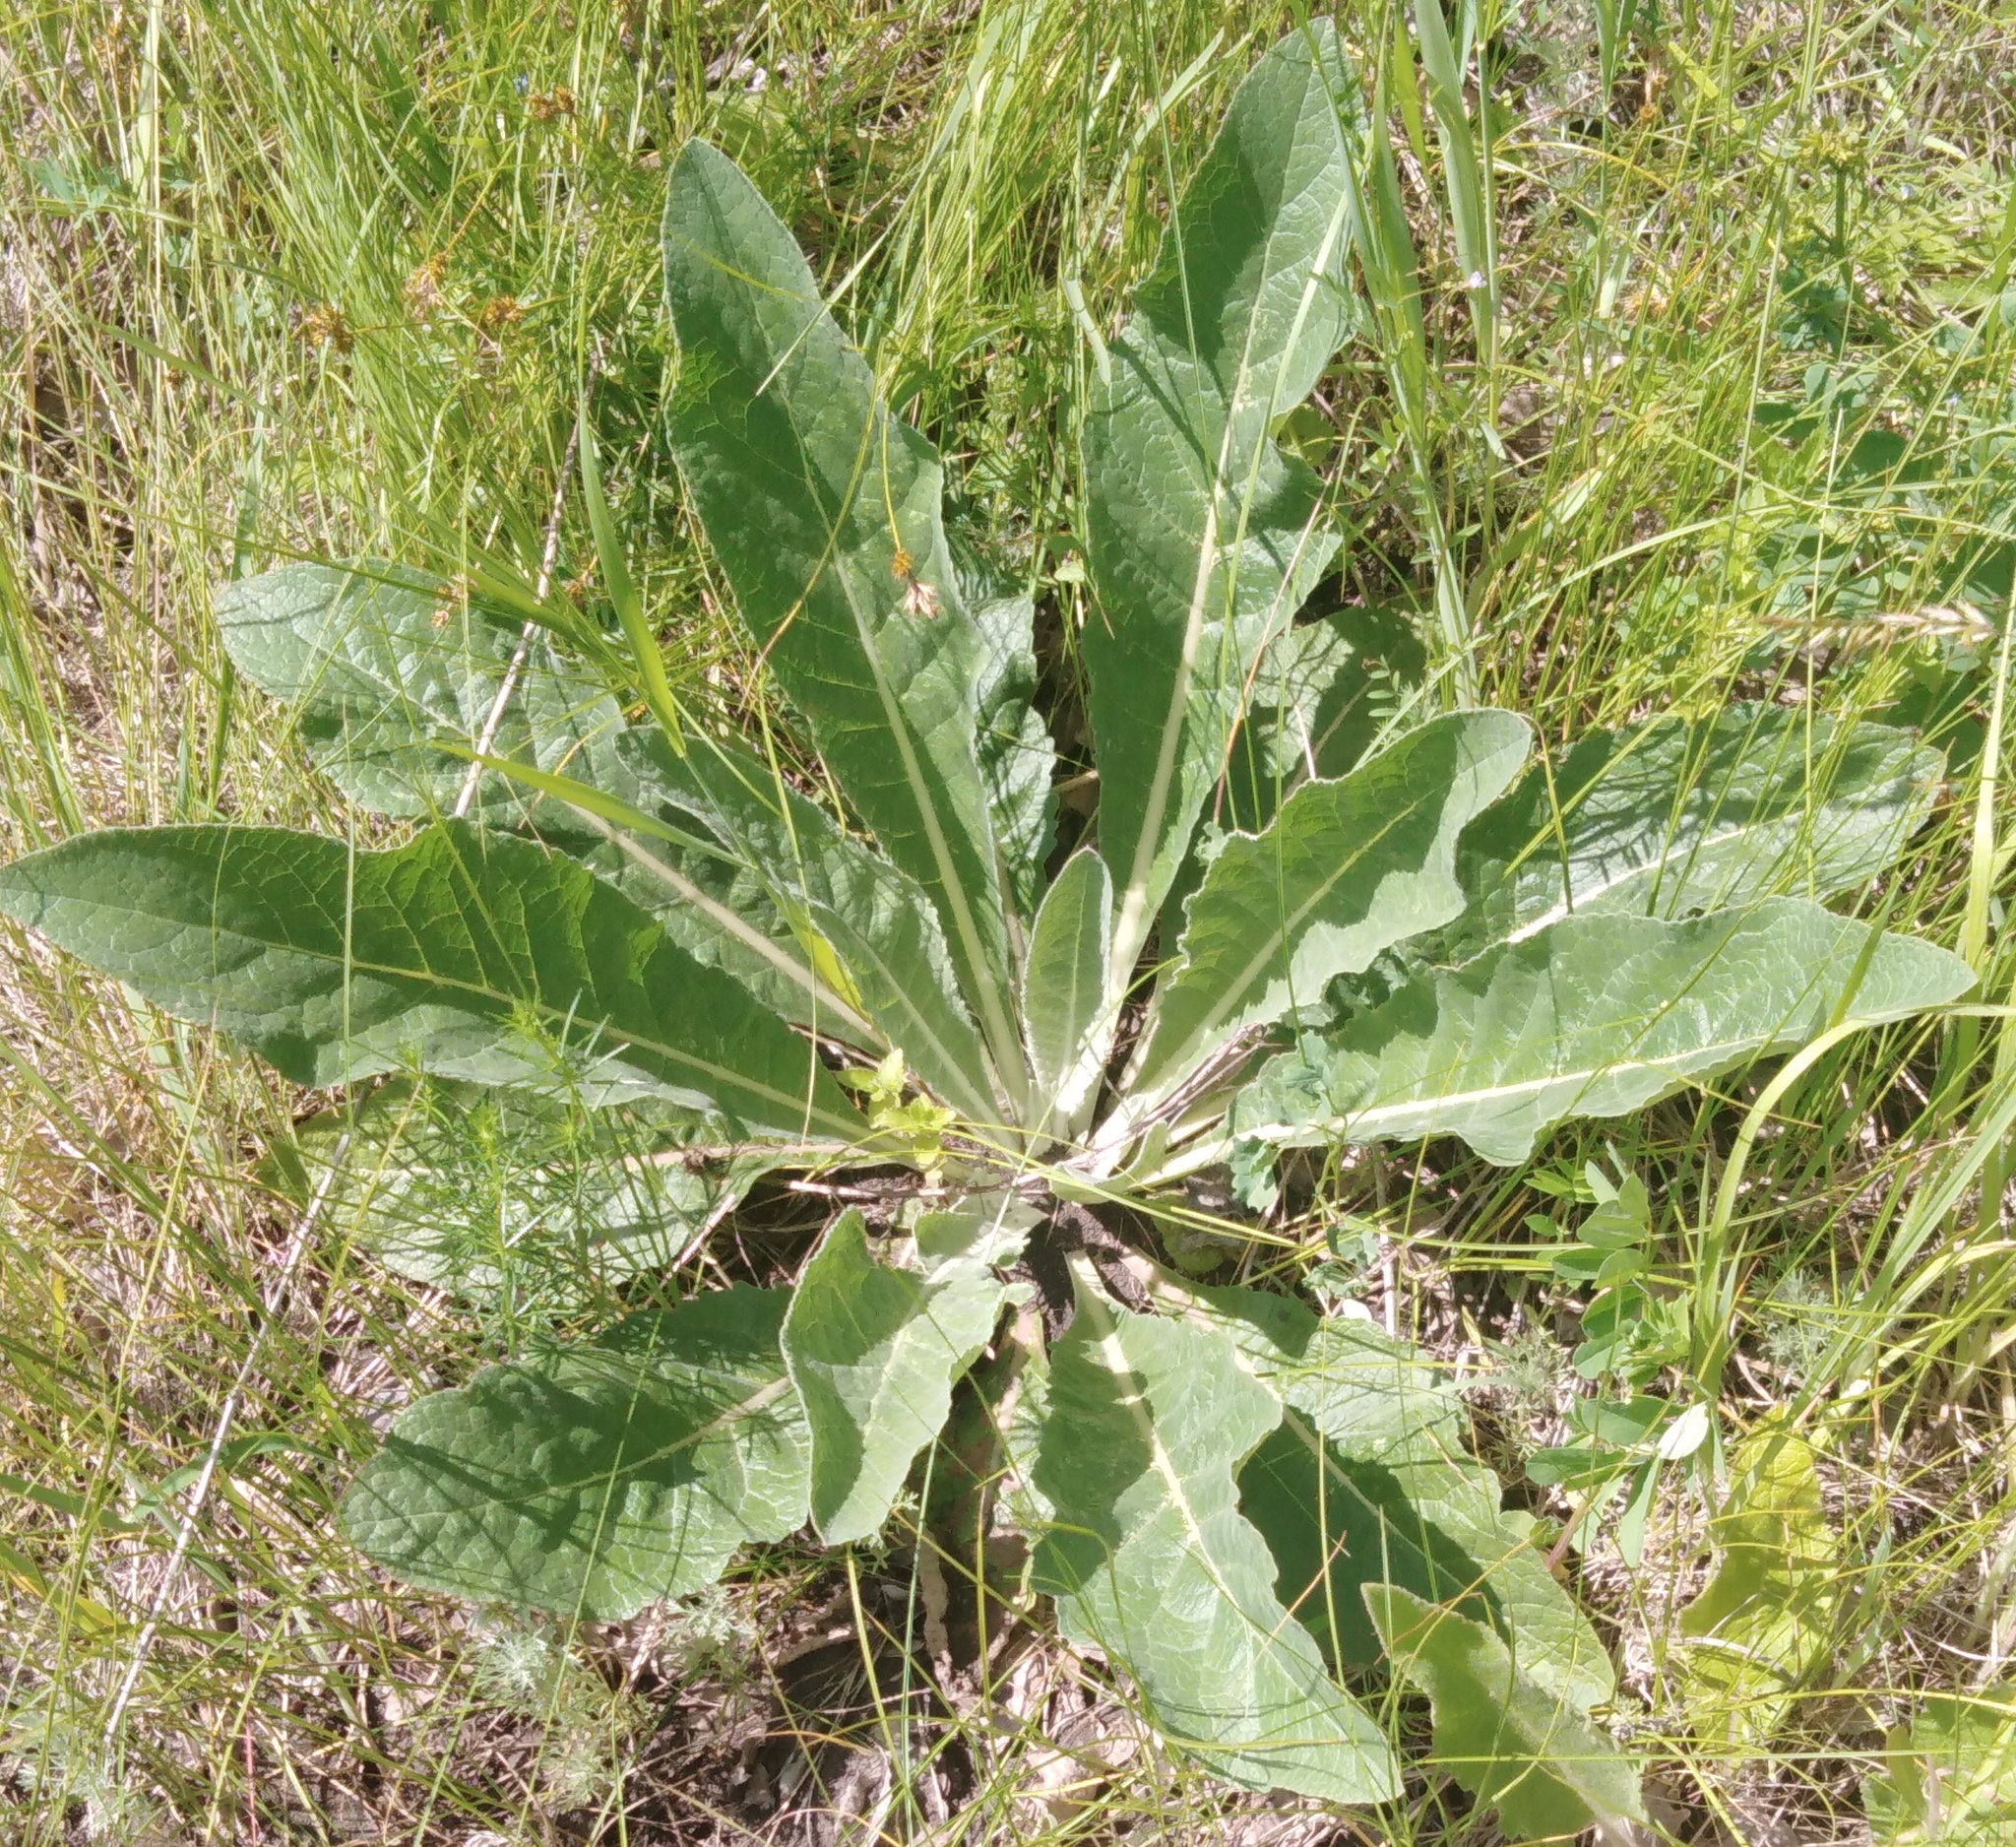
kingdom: Plantae
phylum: Tracheophyta
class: Magnoliopsida
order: Lamiales
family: Scrophulariaceae
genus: Verbascum
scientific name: Verbascum lychnitis
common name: White mullein
